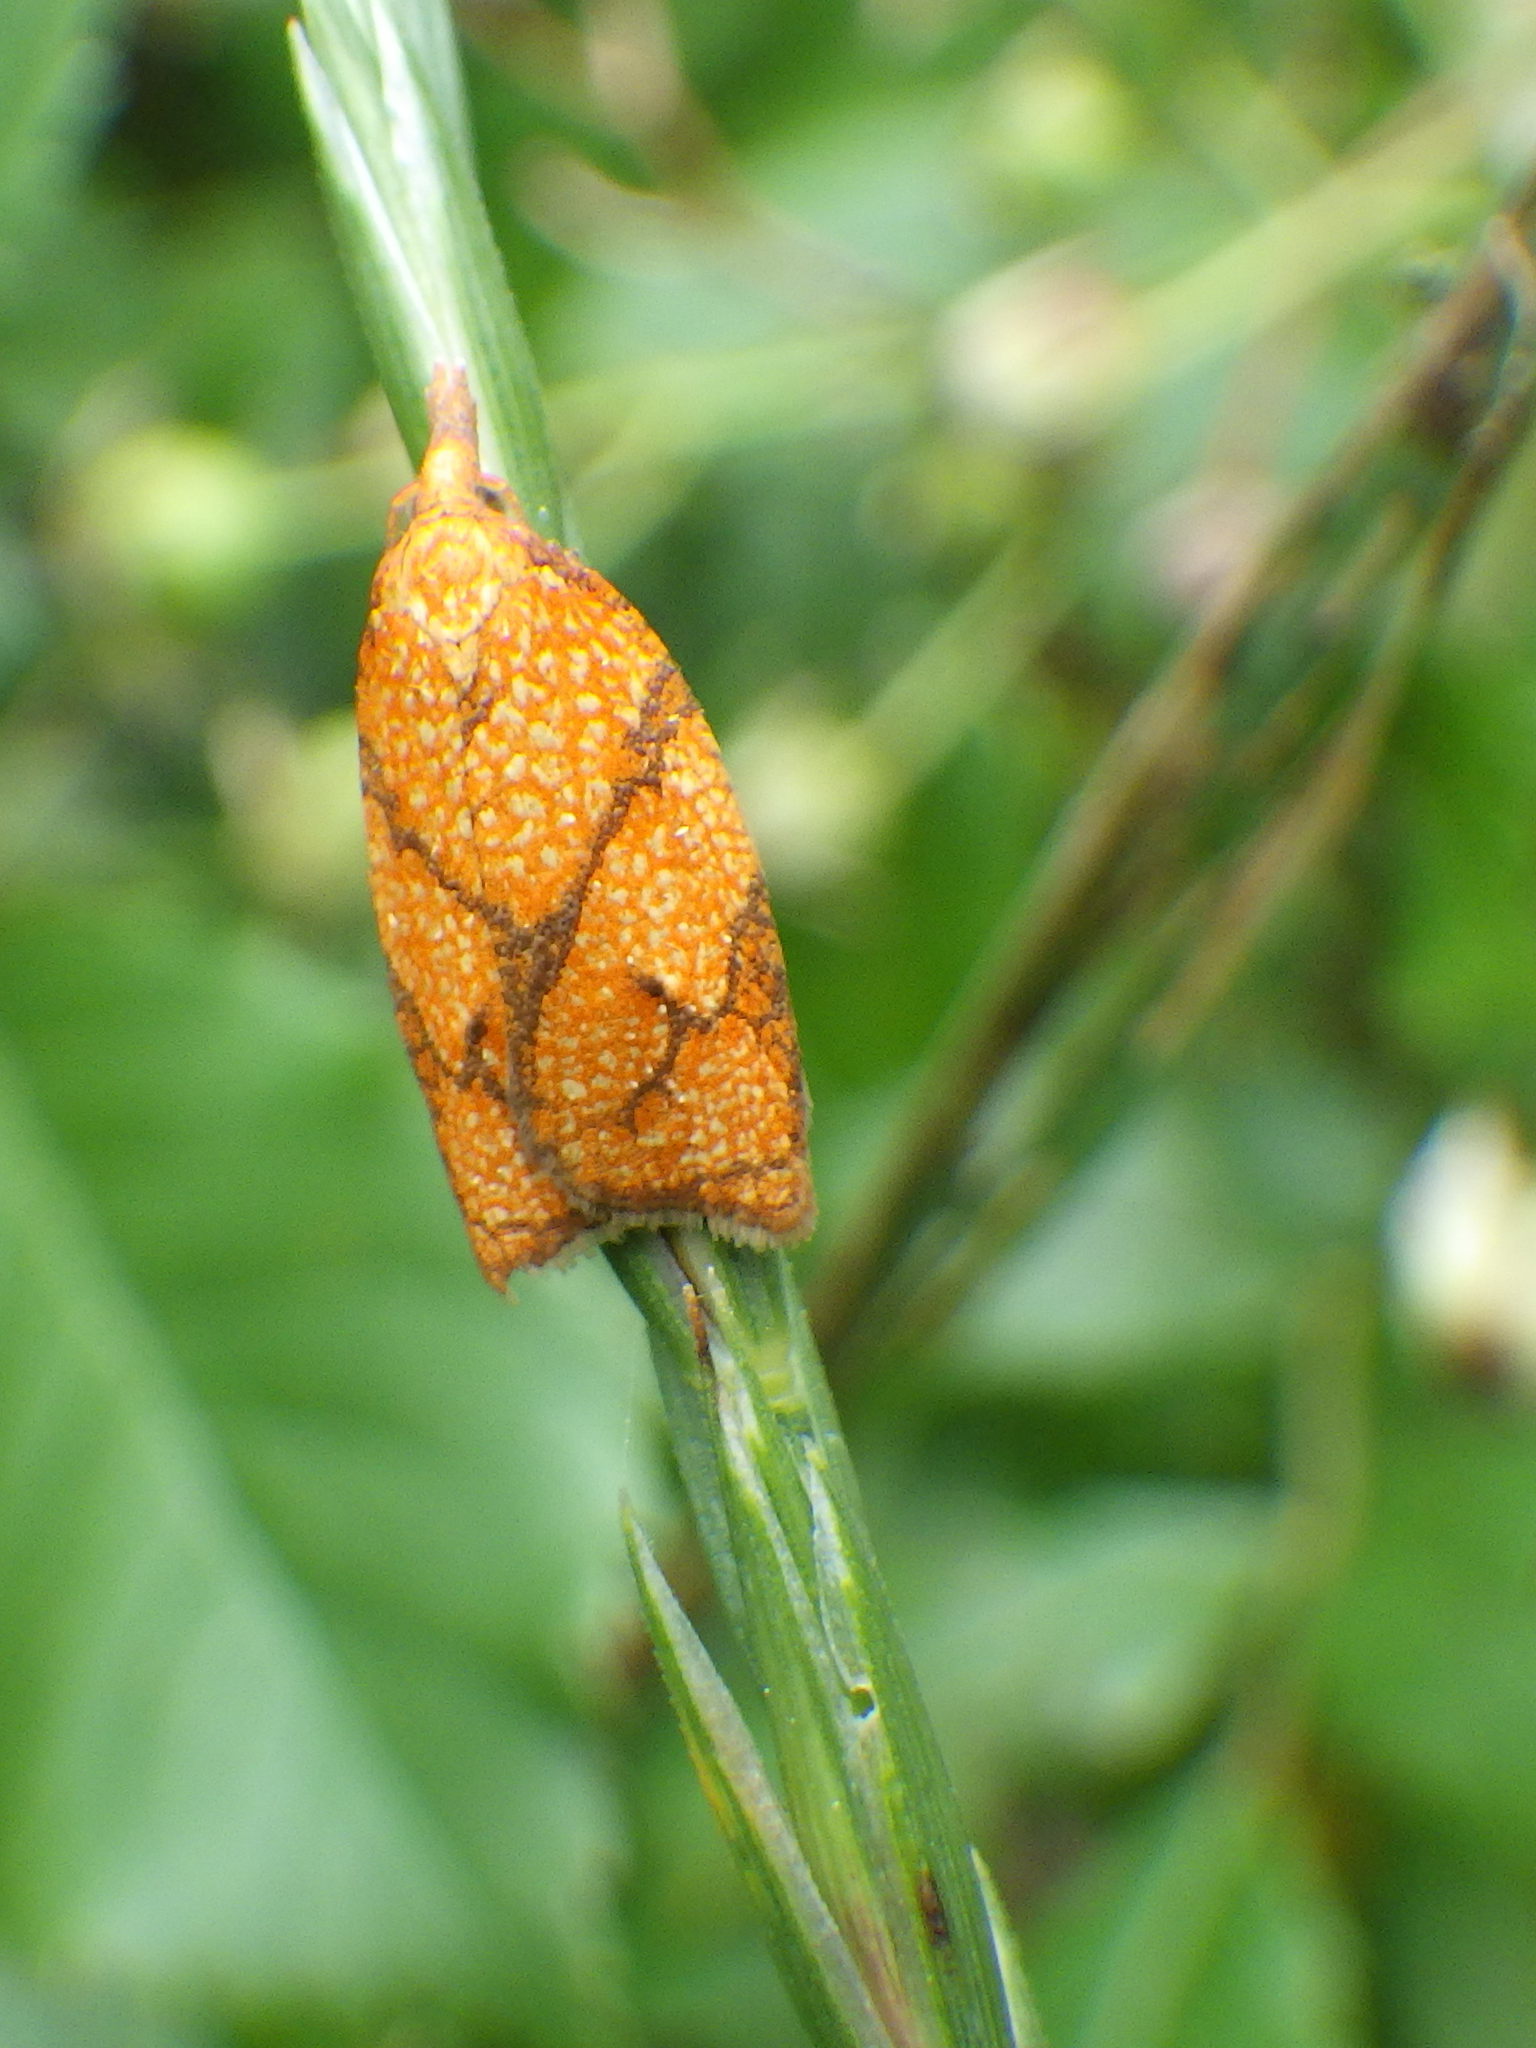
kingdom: Animalia
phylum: Arthropoda
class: Insecta
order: Lepidoptera
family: Tortricidae
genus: Cenopis
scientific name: Cenopis reticulatana
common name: Reticulated fruitworm moth
